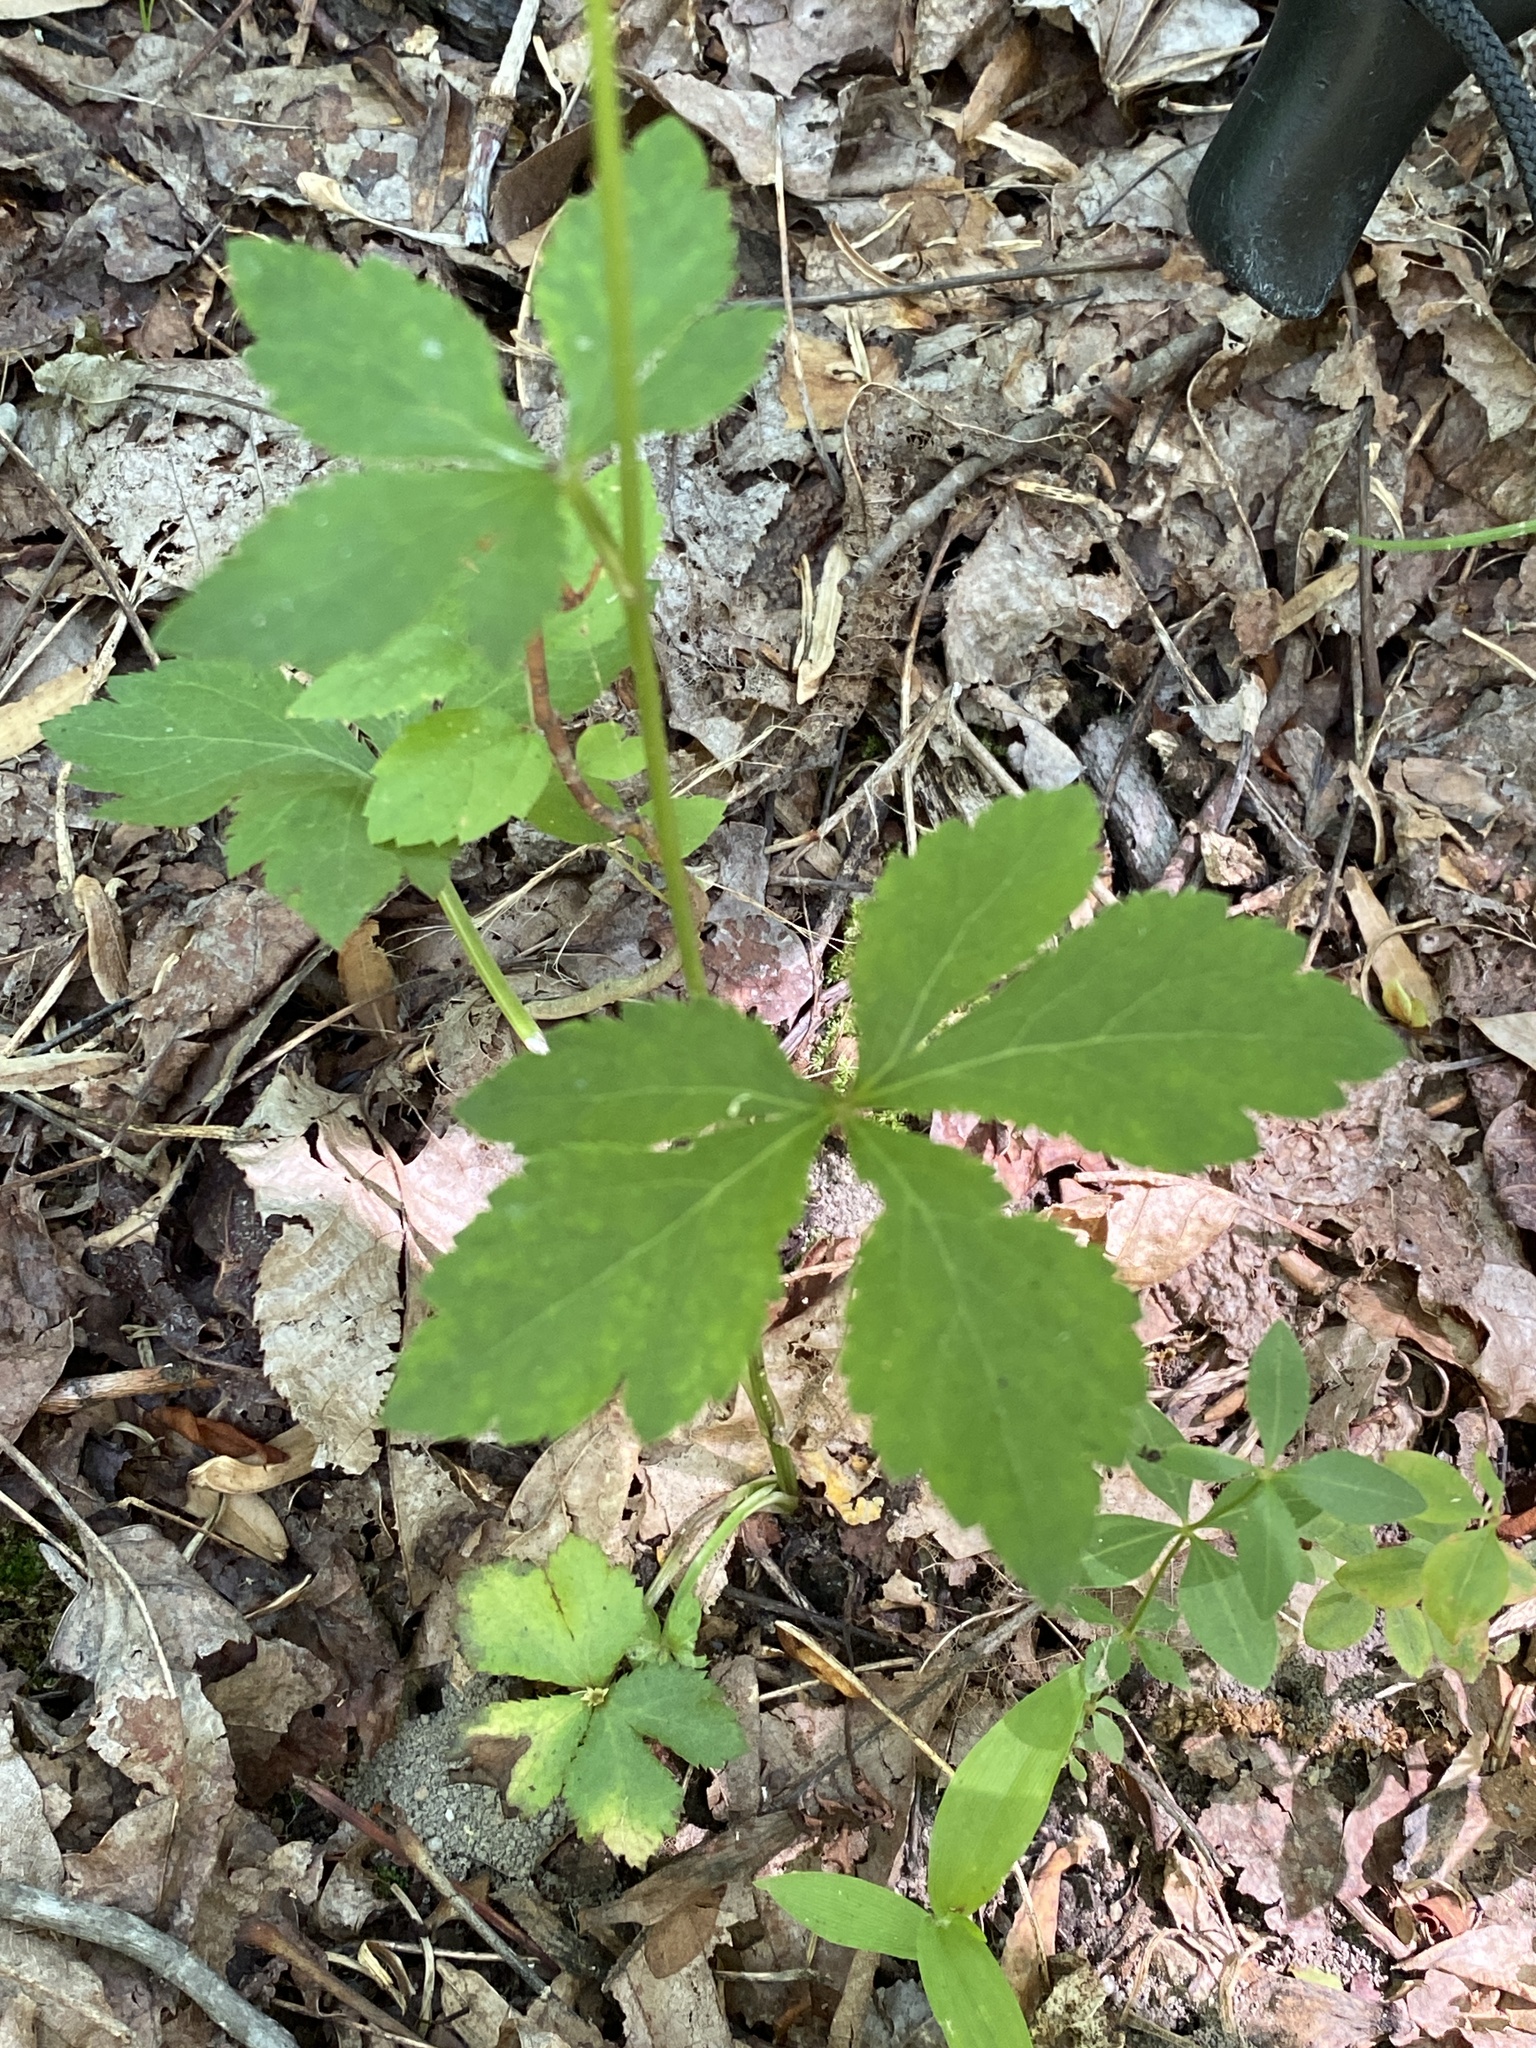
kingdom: Plantae
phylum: Tracheophyta
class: Magnoliopsida
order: Apiales
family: Apiaceae
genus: Sanicula
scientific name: Sanicula canadensis
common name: Canada sanicle
